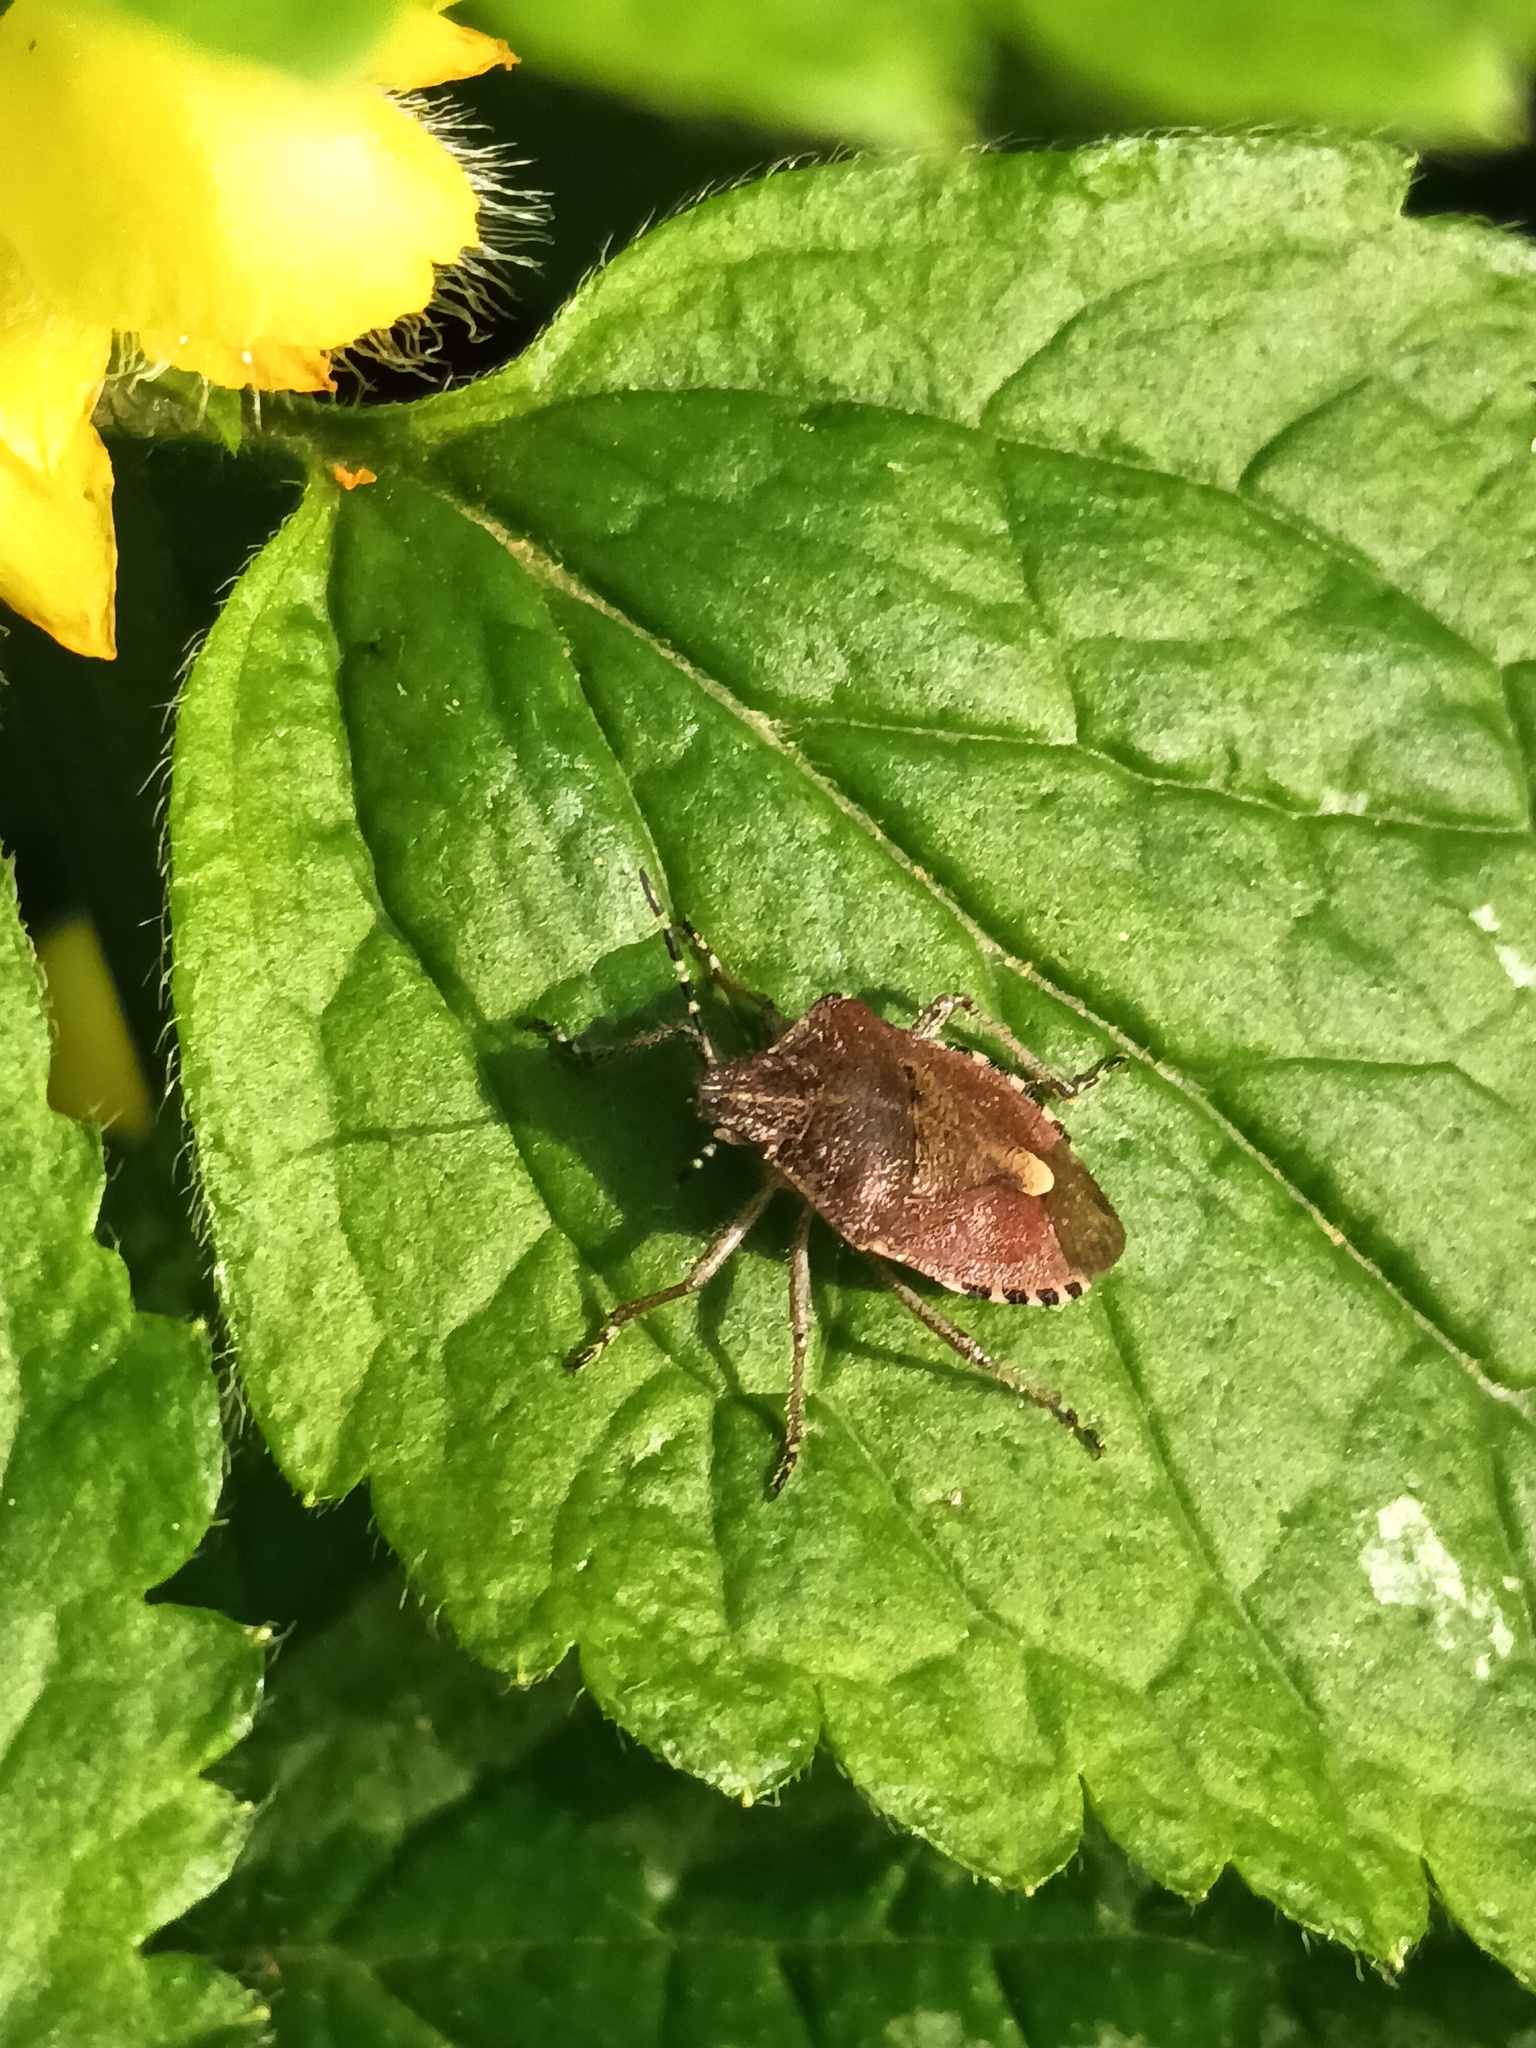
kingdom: Animalia
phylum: Arthropoda
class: Insecta
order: Hemiptera
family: Pentatomidae
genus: Dolycoris
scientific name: Dolycoris baccarum
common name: Sloe bug
